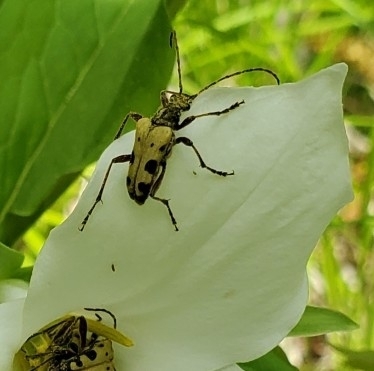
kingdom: Animalia
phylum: Arthropoda
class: Insecta
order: Coleoptera
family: Cerambycidae
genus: Evodinus
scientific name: Evodinus monticola
